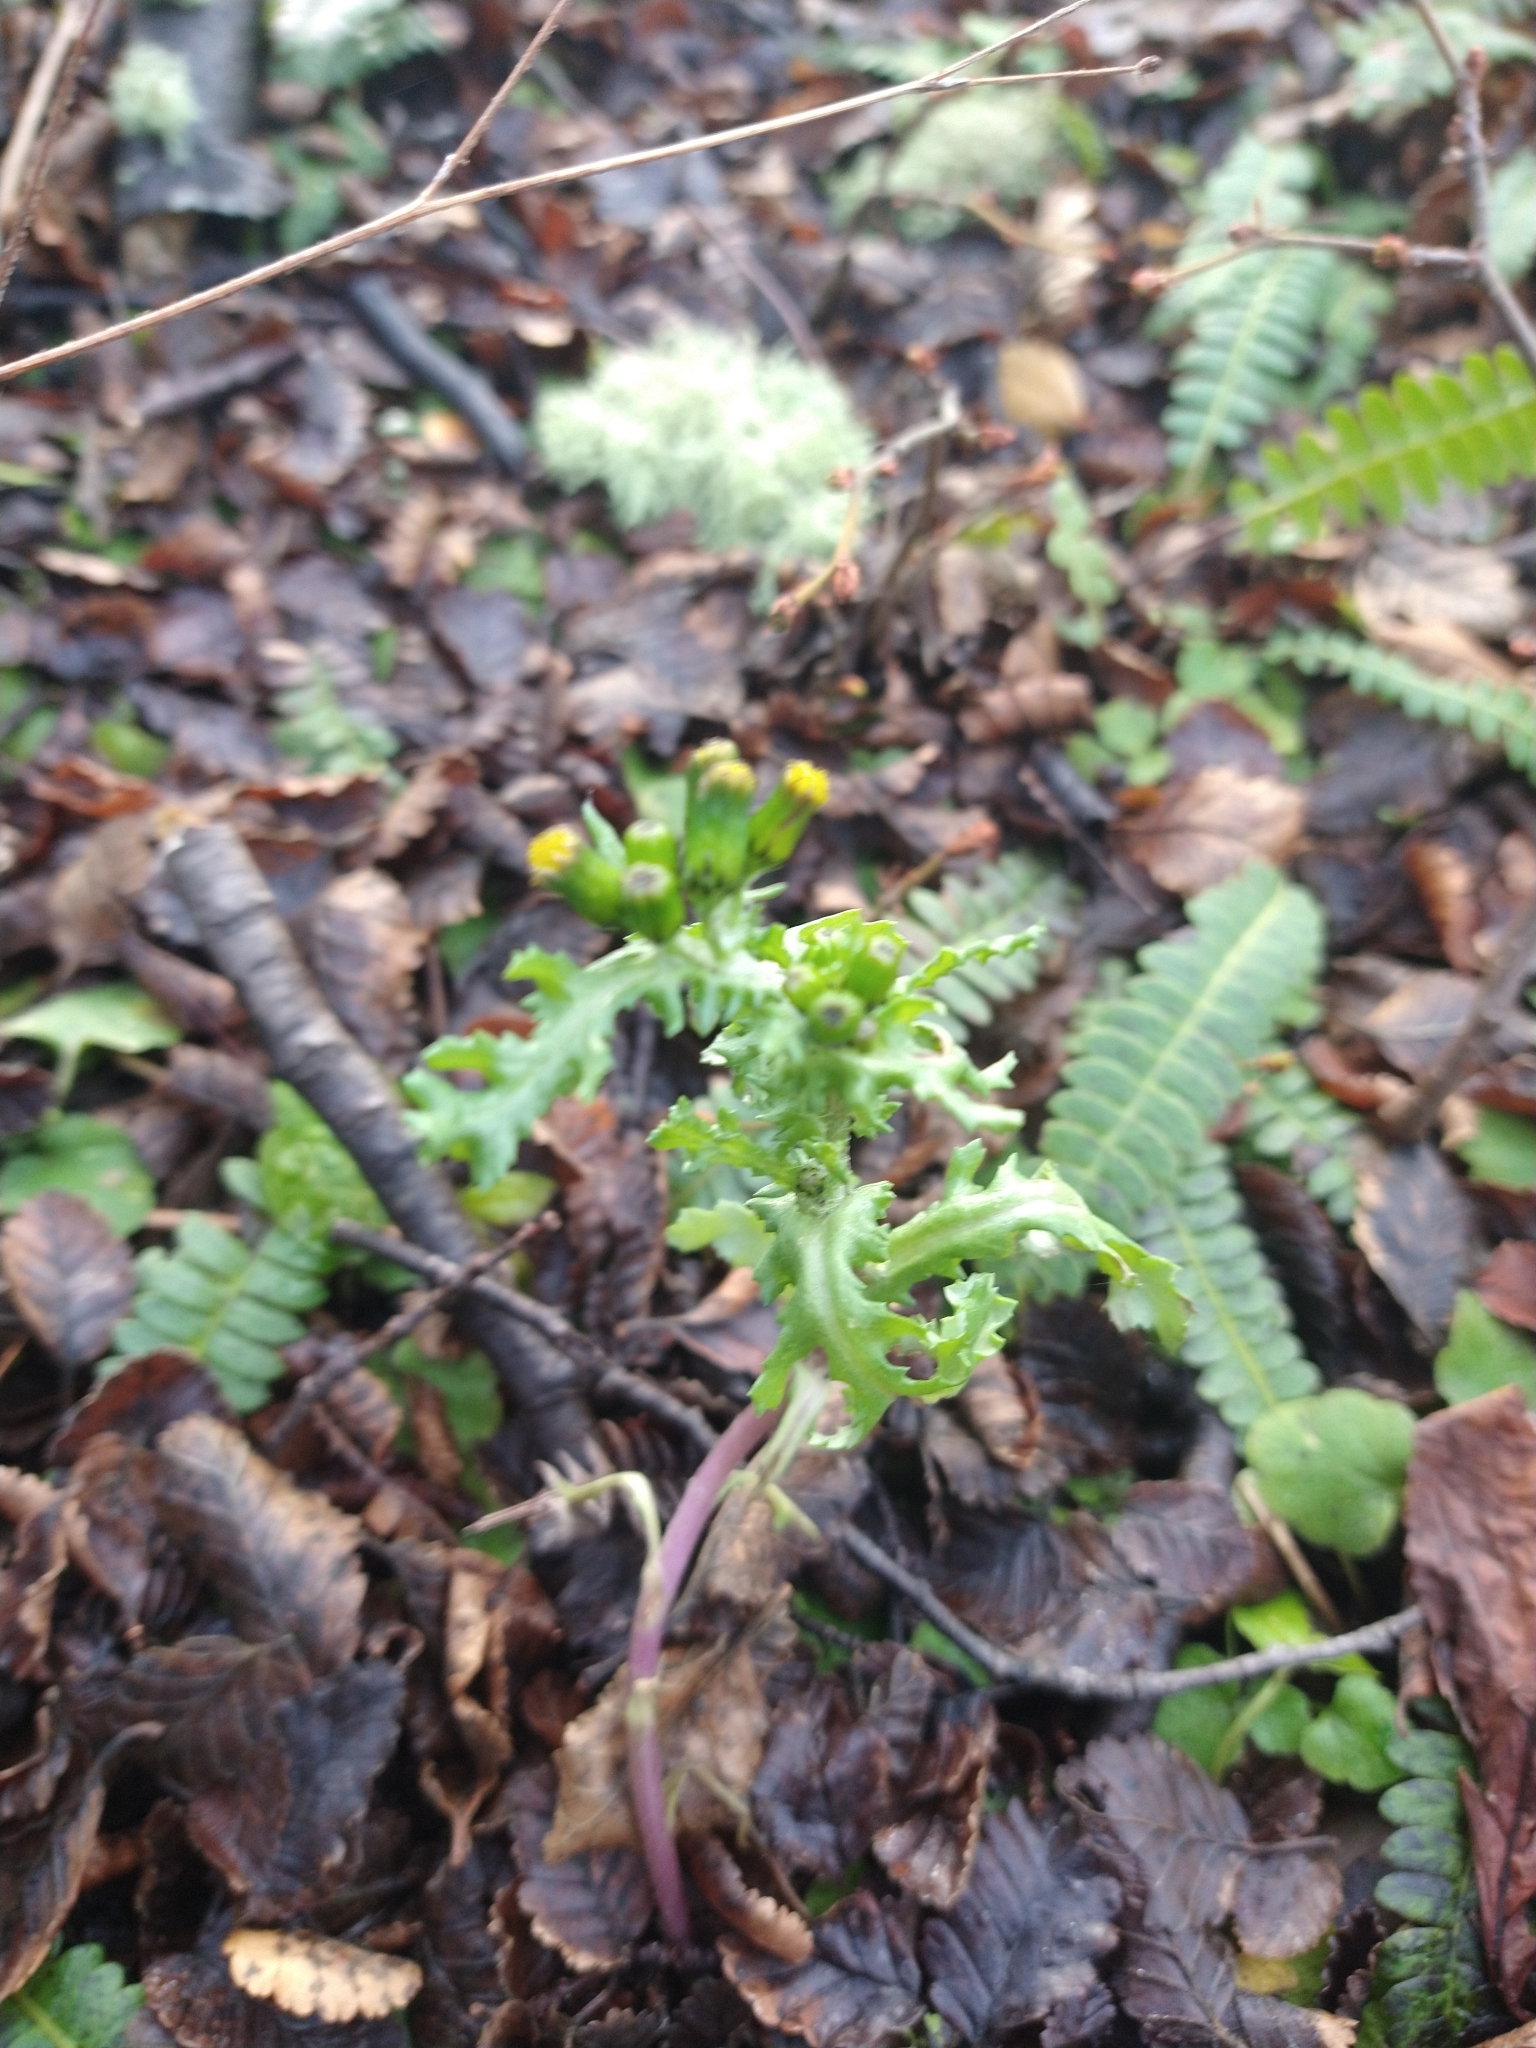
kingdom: Plantae
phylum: Tracheophyta
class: Magnoliopsida
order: Asterales
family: Asteraceae
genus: Senecio
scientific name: Senecio vulgaris
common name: Old-man-in-the-spring
